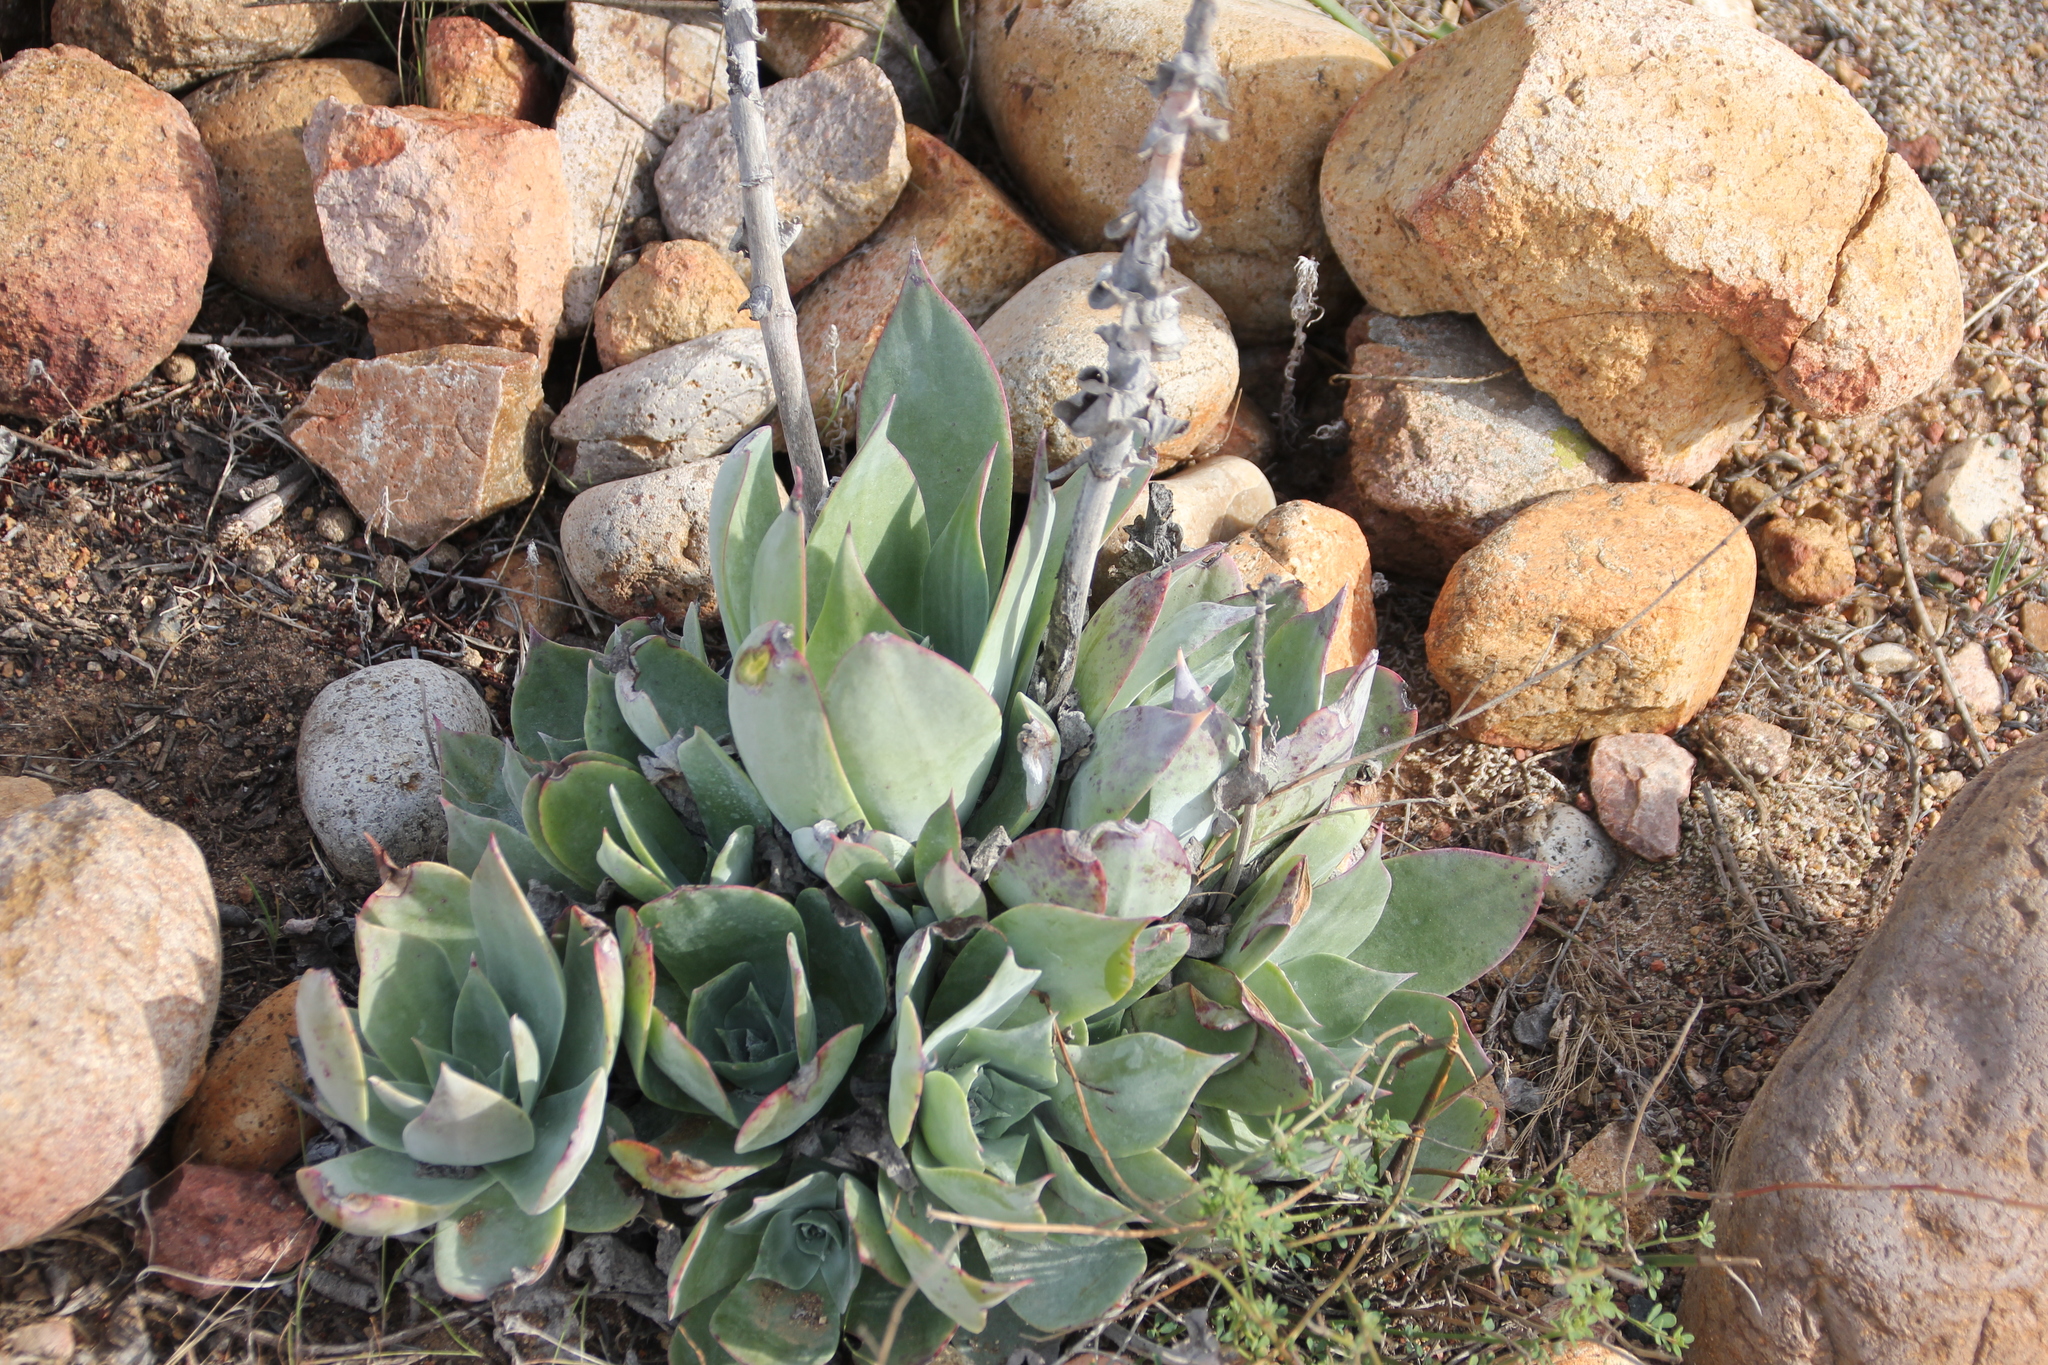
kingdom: Plantae
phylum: Tracheophyta
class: Magnoliopsida
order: Saxifragales
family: Crassulaceae
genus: Dudleya
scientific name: Dudleya pulverulenta
